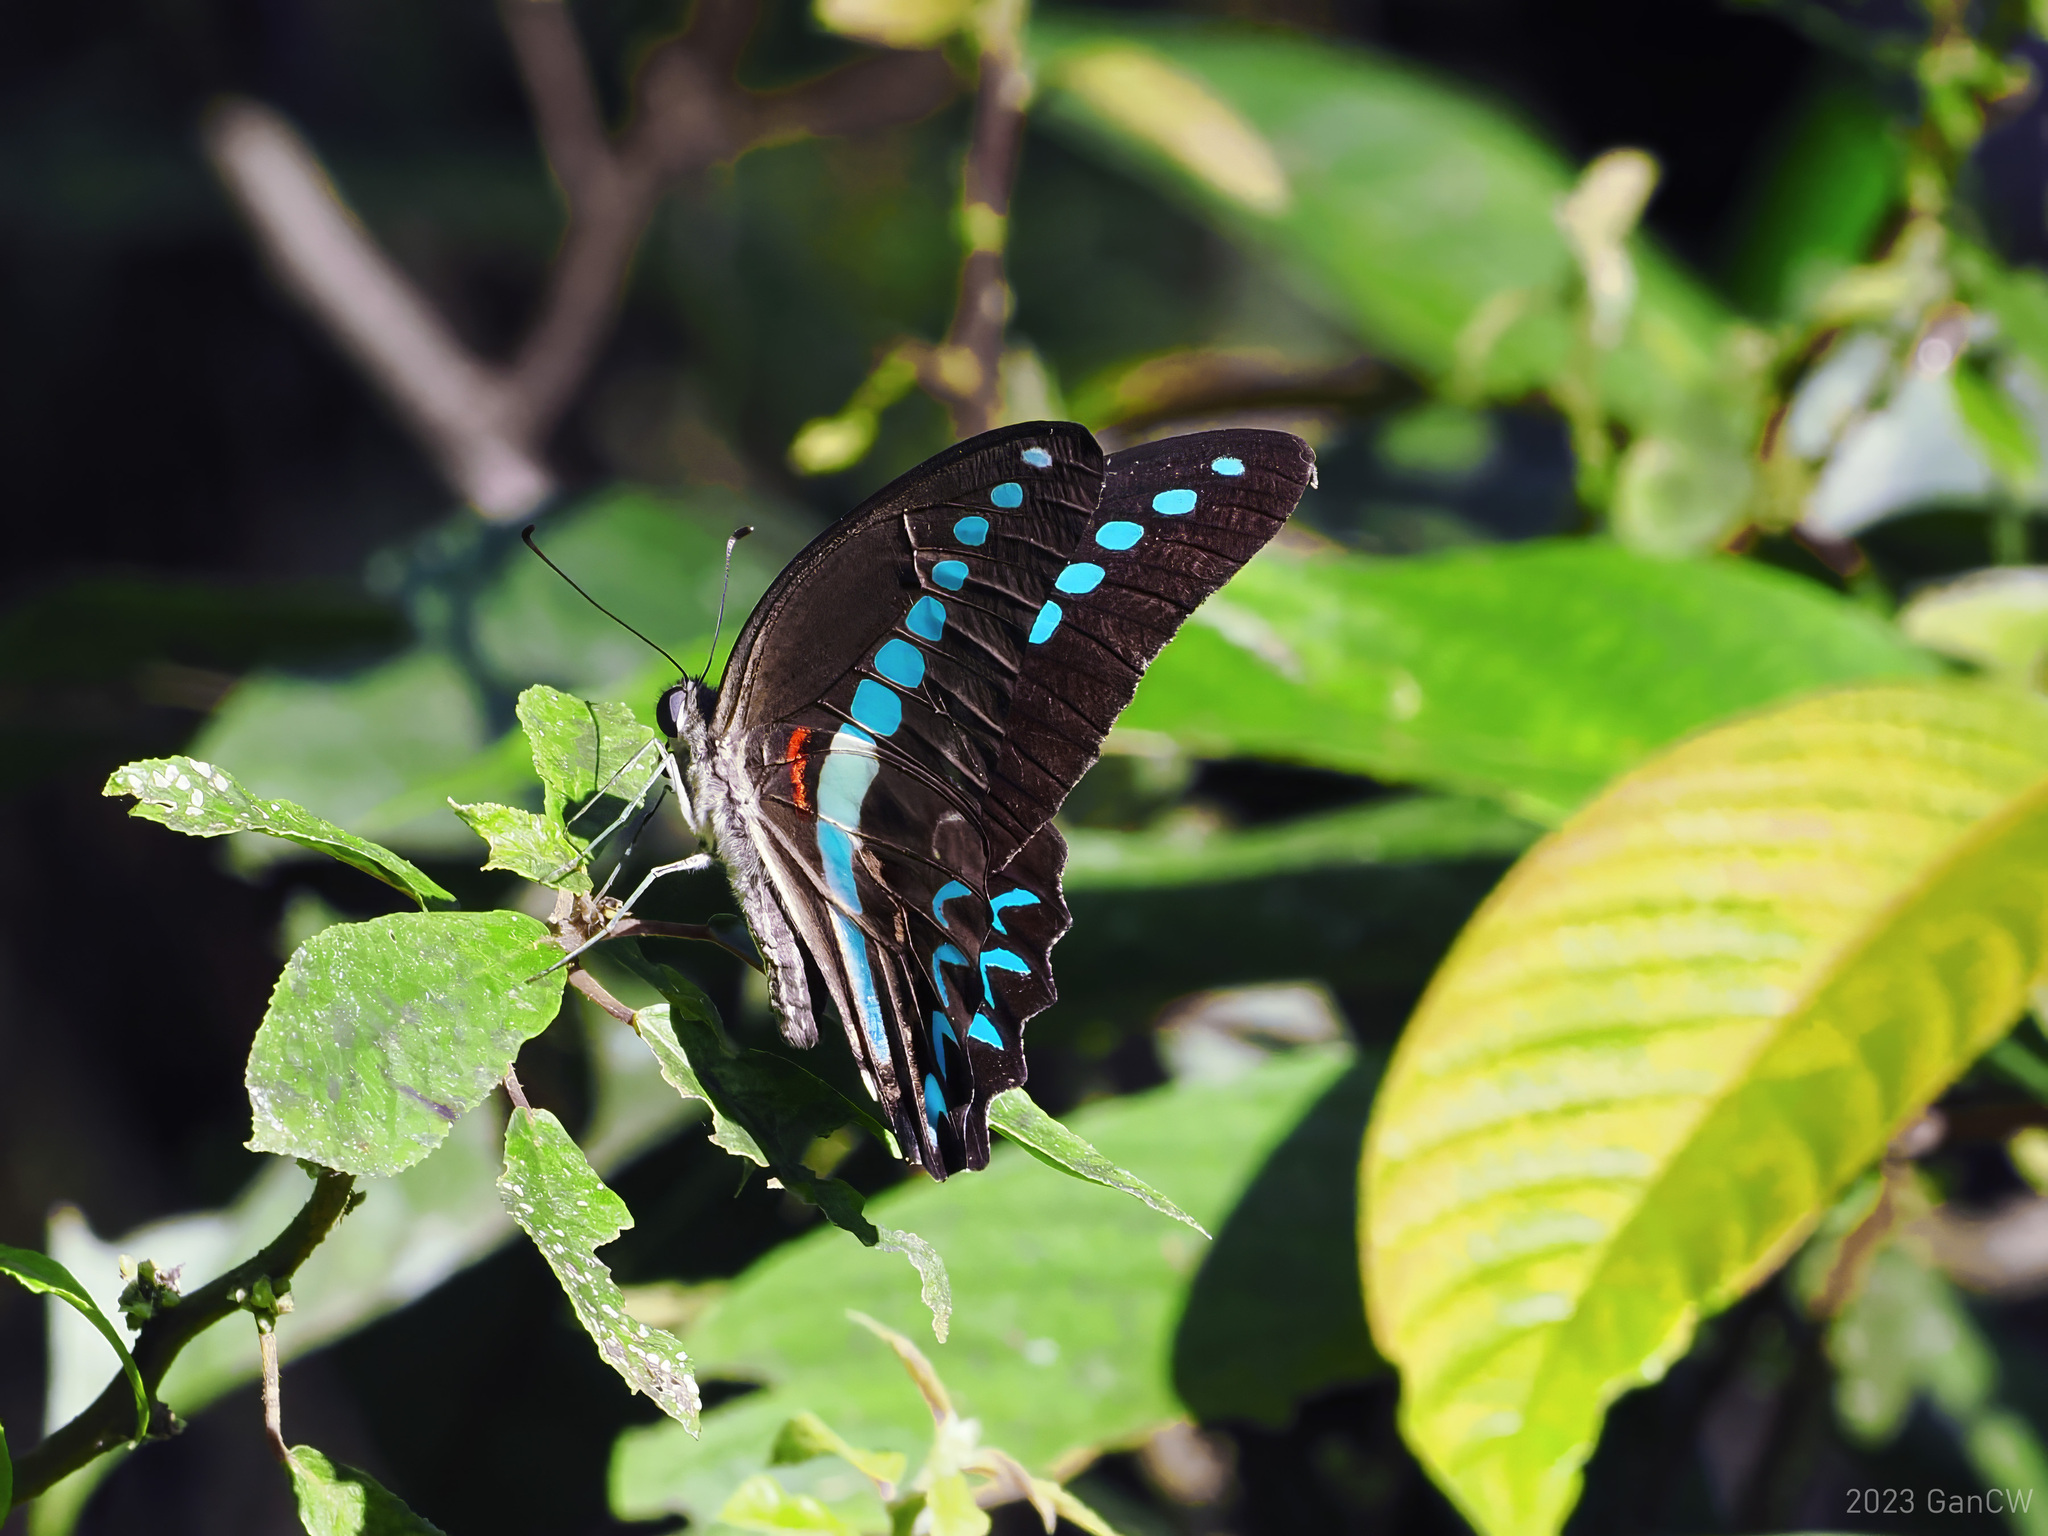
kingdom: Animalia
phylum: Arthropoda
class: Insecta
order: Lepidoptera
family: Papilionidae
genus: Graphium
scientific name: Graphium milon
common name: Milon's swallowtail
